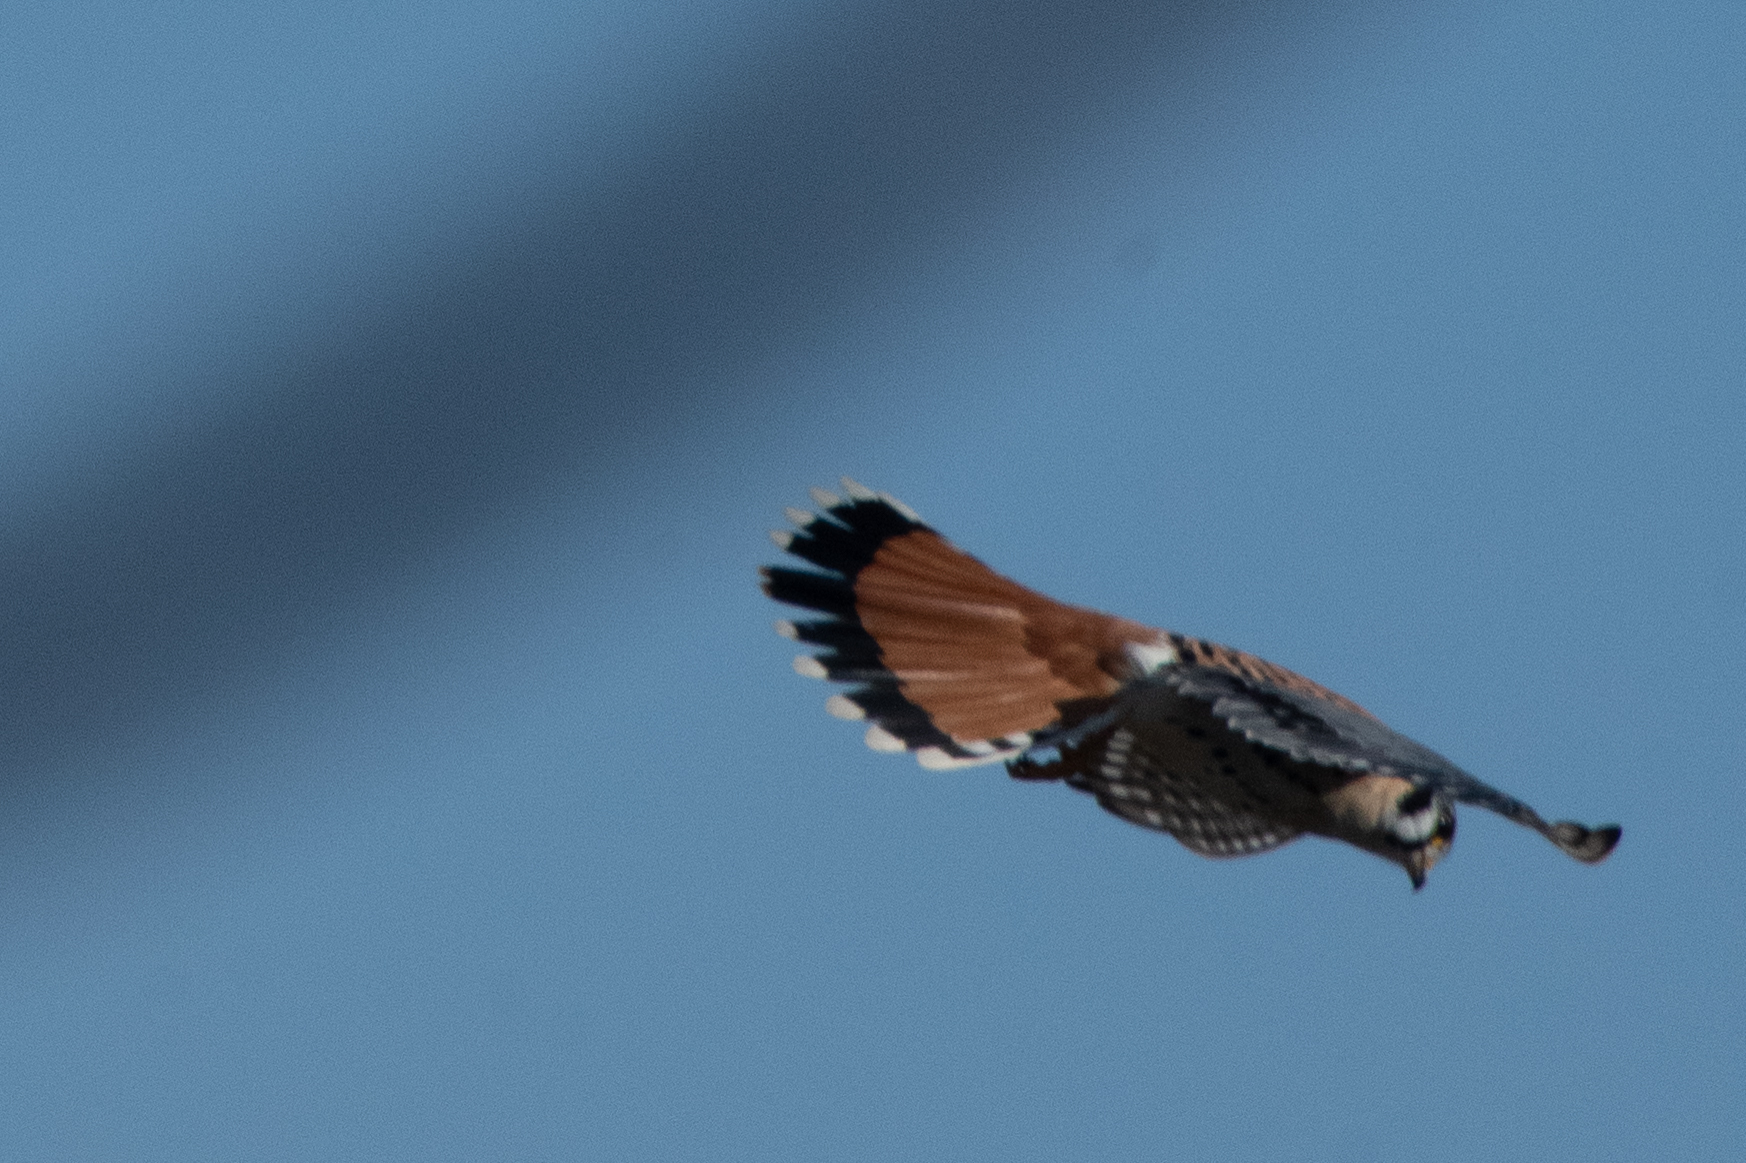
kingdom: Animalia
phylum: Chordata
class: Aves
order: Falconiformes
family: Falconidae
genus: Falco
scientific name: Falco sparverius
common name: American kestrel
